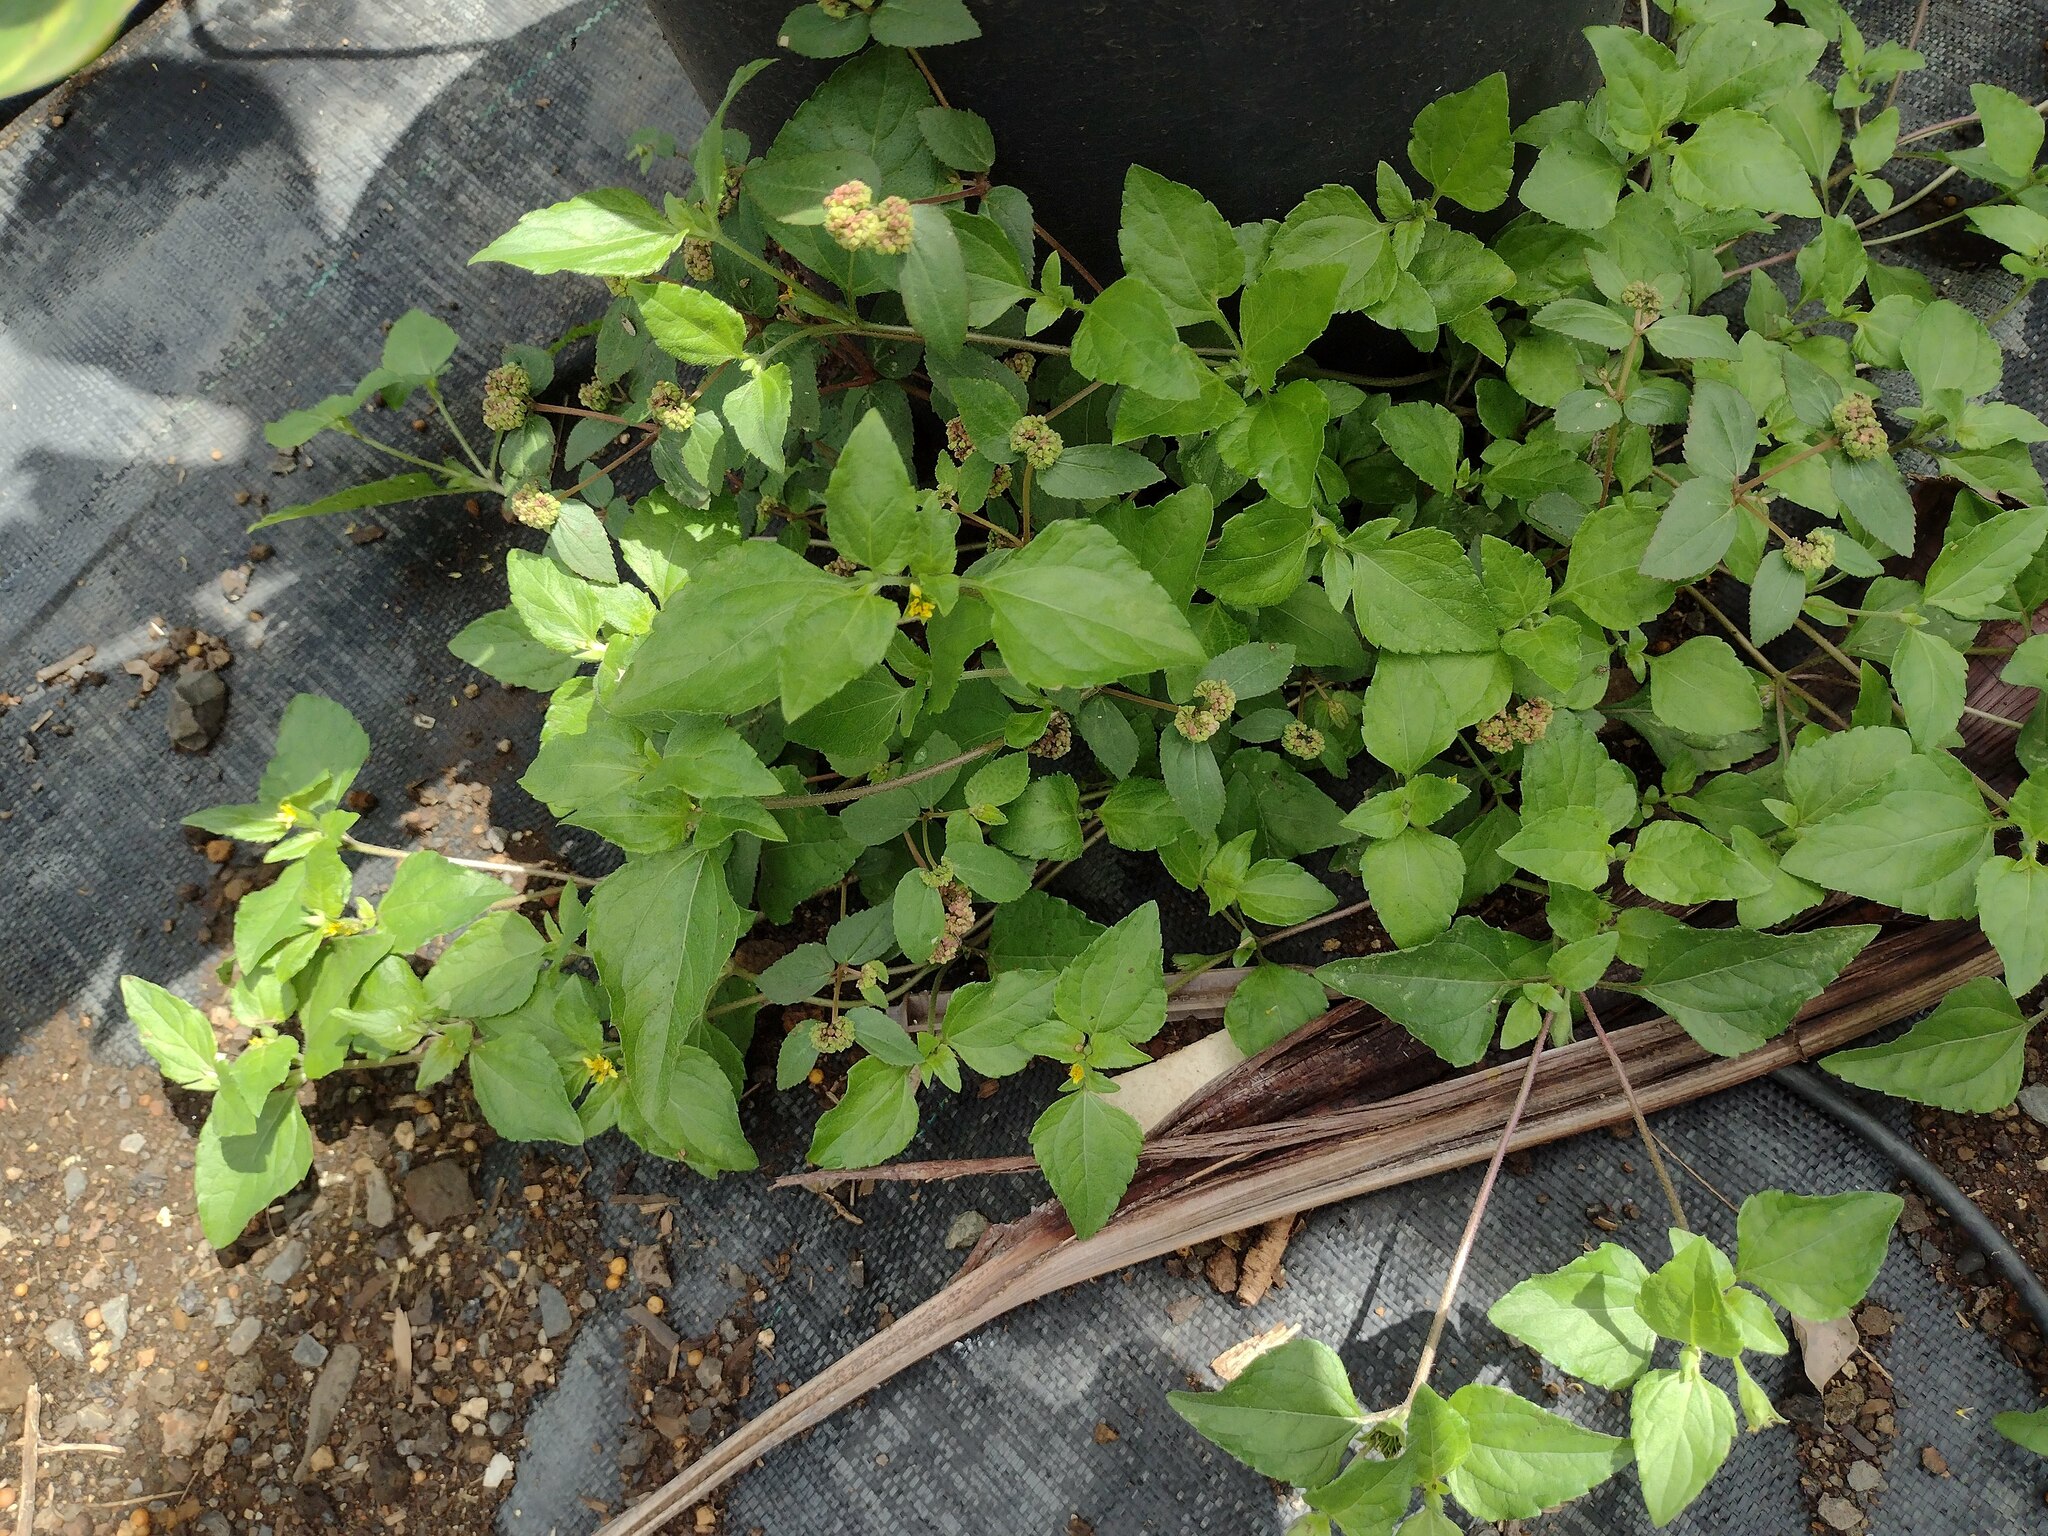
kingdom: Plantae
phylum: Tracheophyta
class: Magnoliopsida
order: Asterales
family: Asteraceae
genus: Calyptocarpus
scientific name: Calyptocarpus vialis
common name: Straggler daisy
